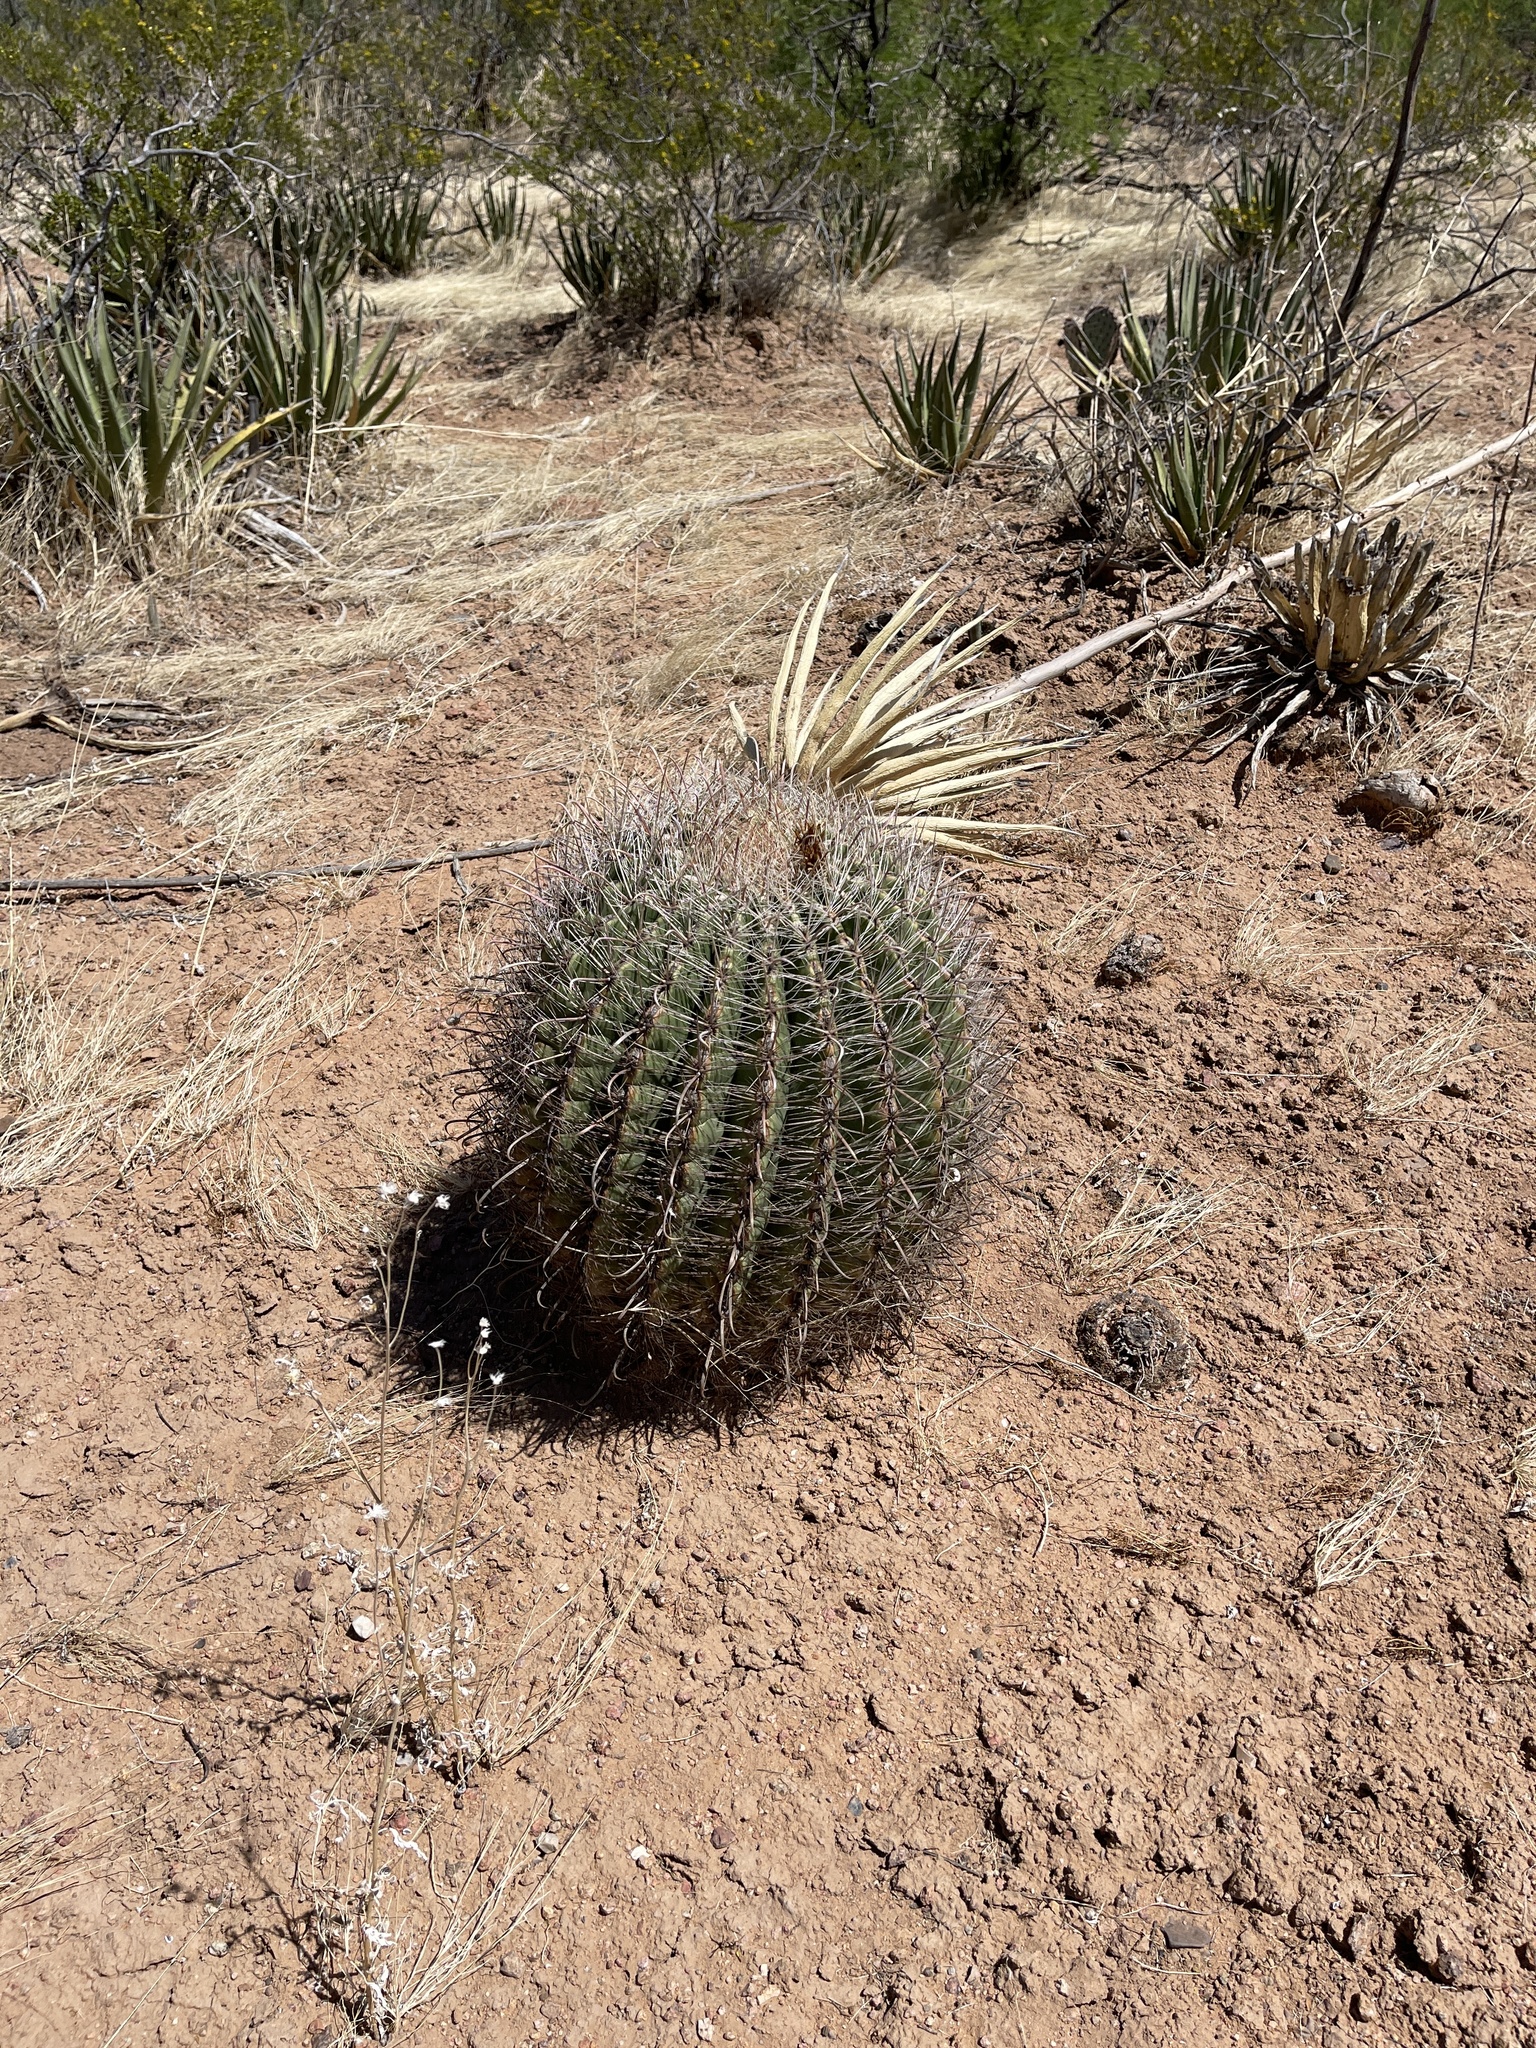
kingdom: Plantae
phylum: Tracheophyta
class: Magnoliopsida
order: Caryophyllales
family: Cactaceae
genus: Ferocactus
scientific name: Ferocactus wislizeni
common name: Candy barrel cactus
